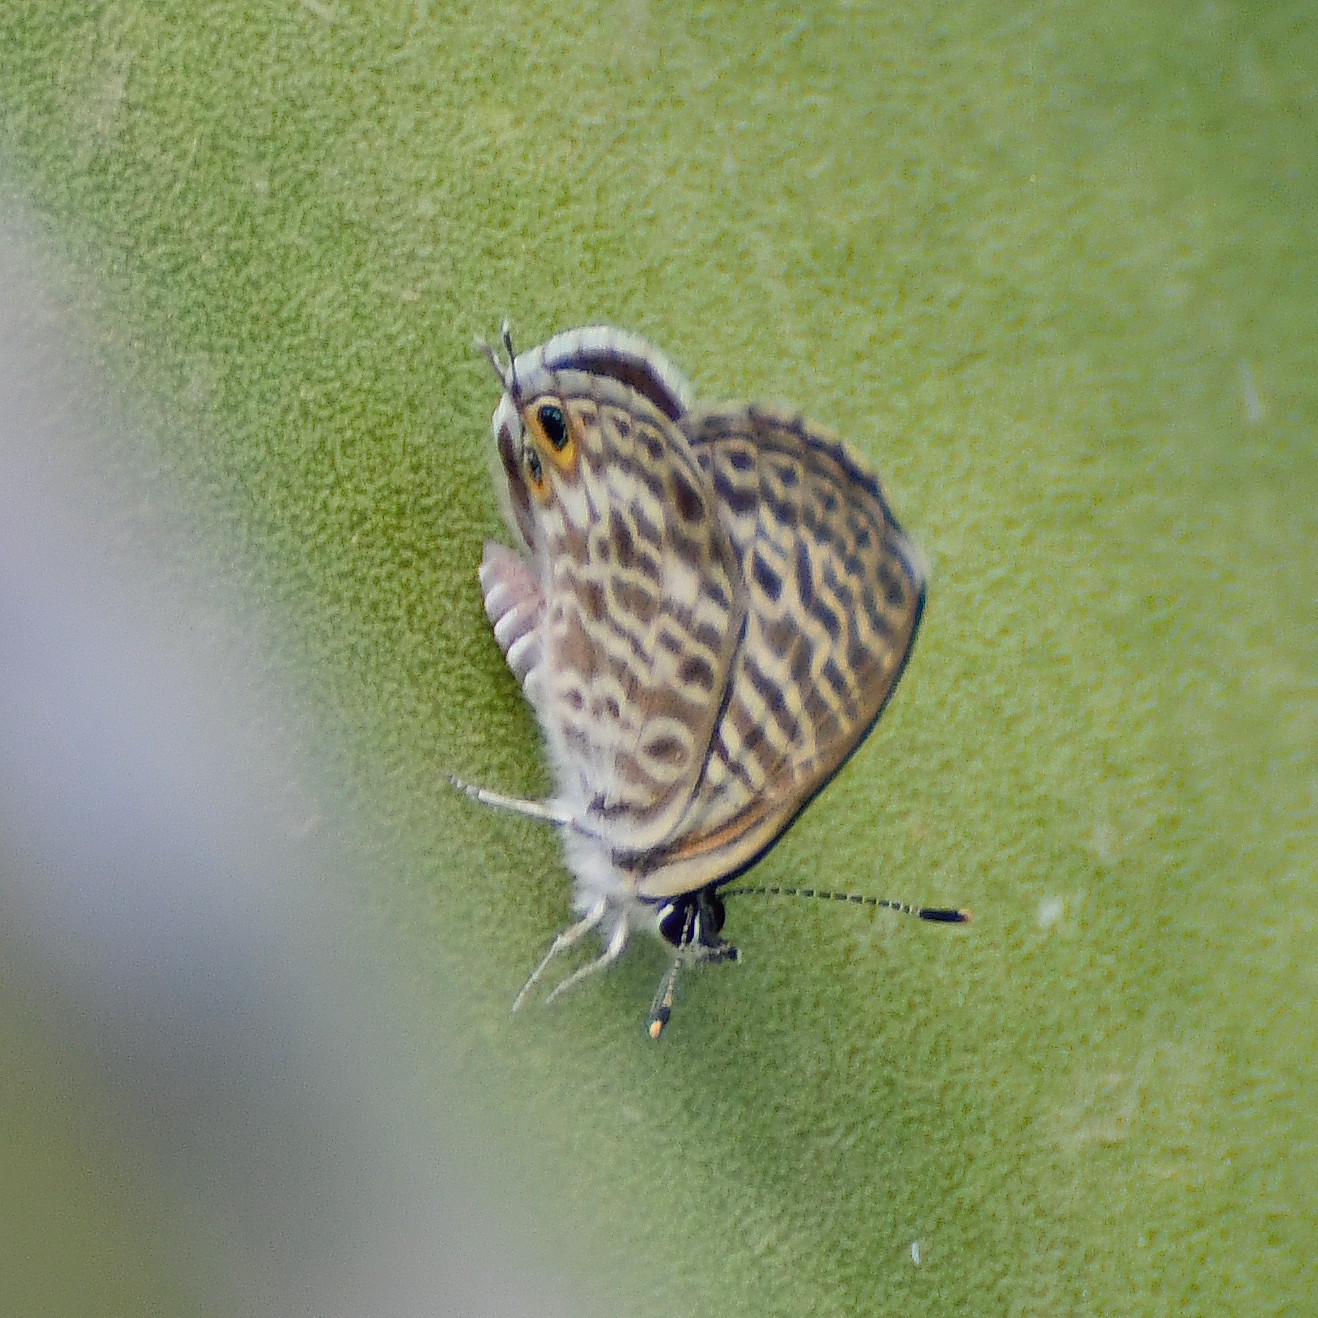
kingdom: Animalia
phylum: Arthropoda
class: Insecta
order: Lepidoptera
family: Lycaenidae
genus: Leptotes
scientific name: Leptotes pirithous
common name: Lang's short-tailed blue
